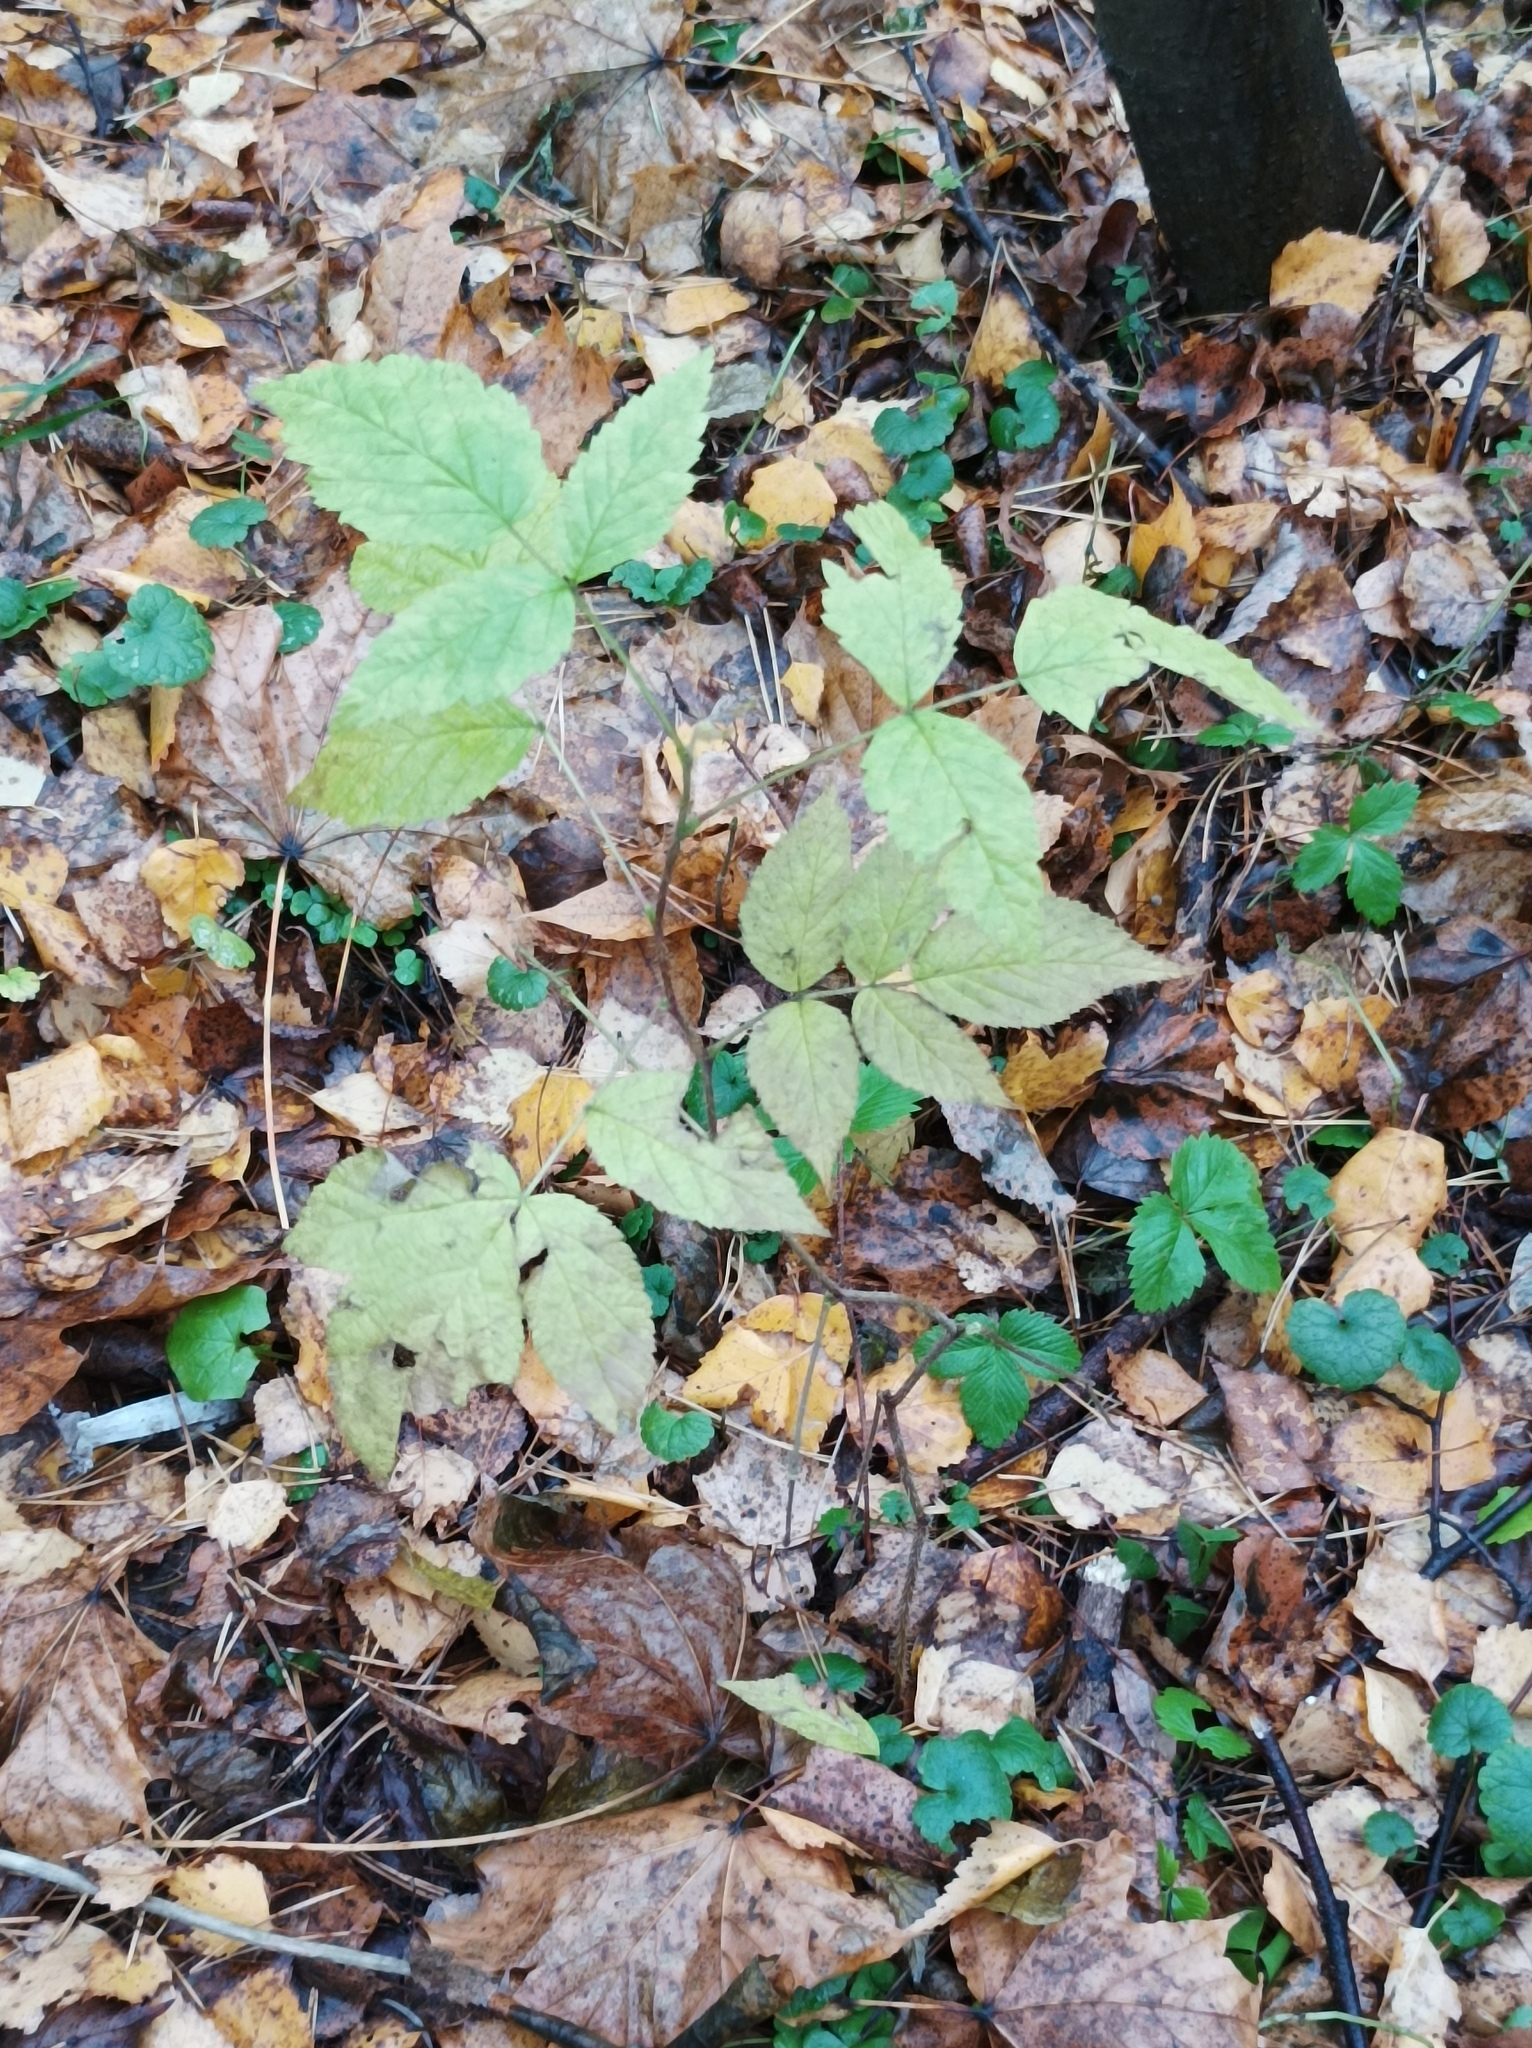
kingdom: Plantae
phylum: Tracheophyta
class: Magnoliopsida
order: Rosales
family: Rosaceae
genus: Rubus
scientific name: Rubus idaeus
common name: Raspberry
